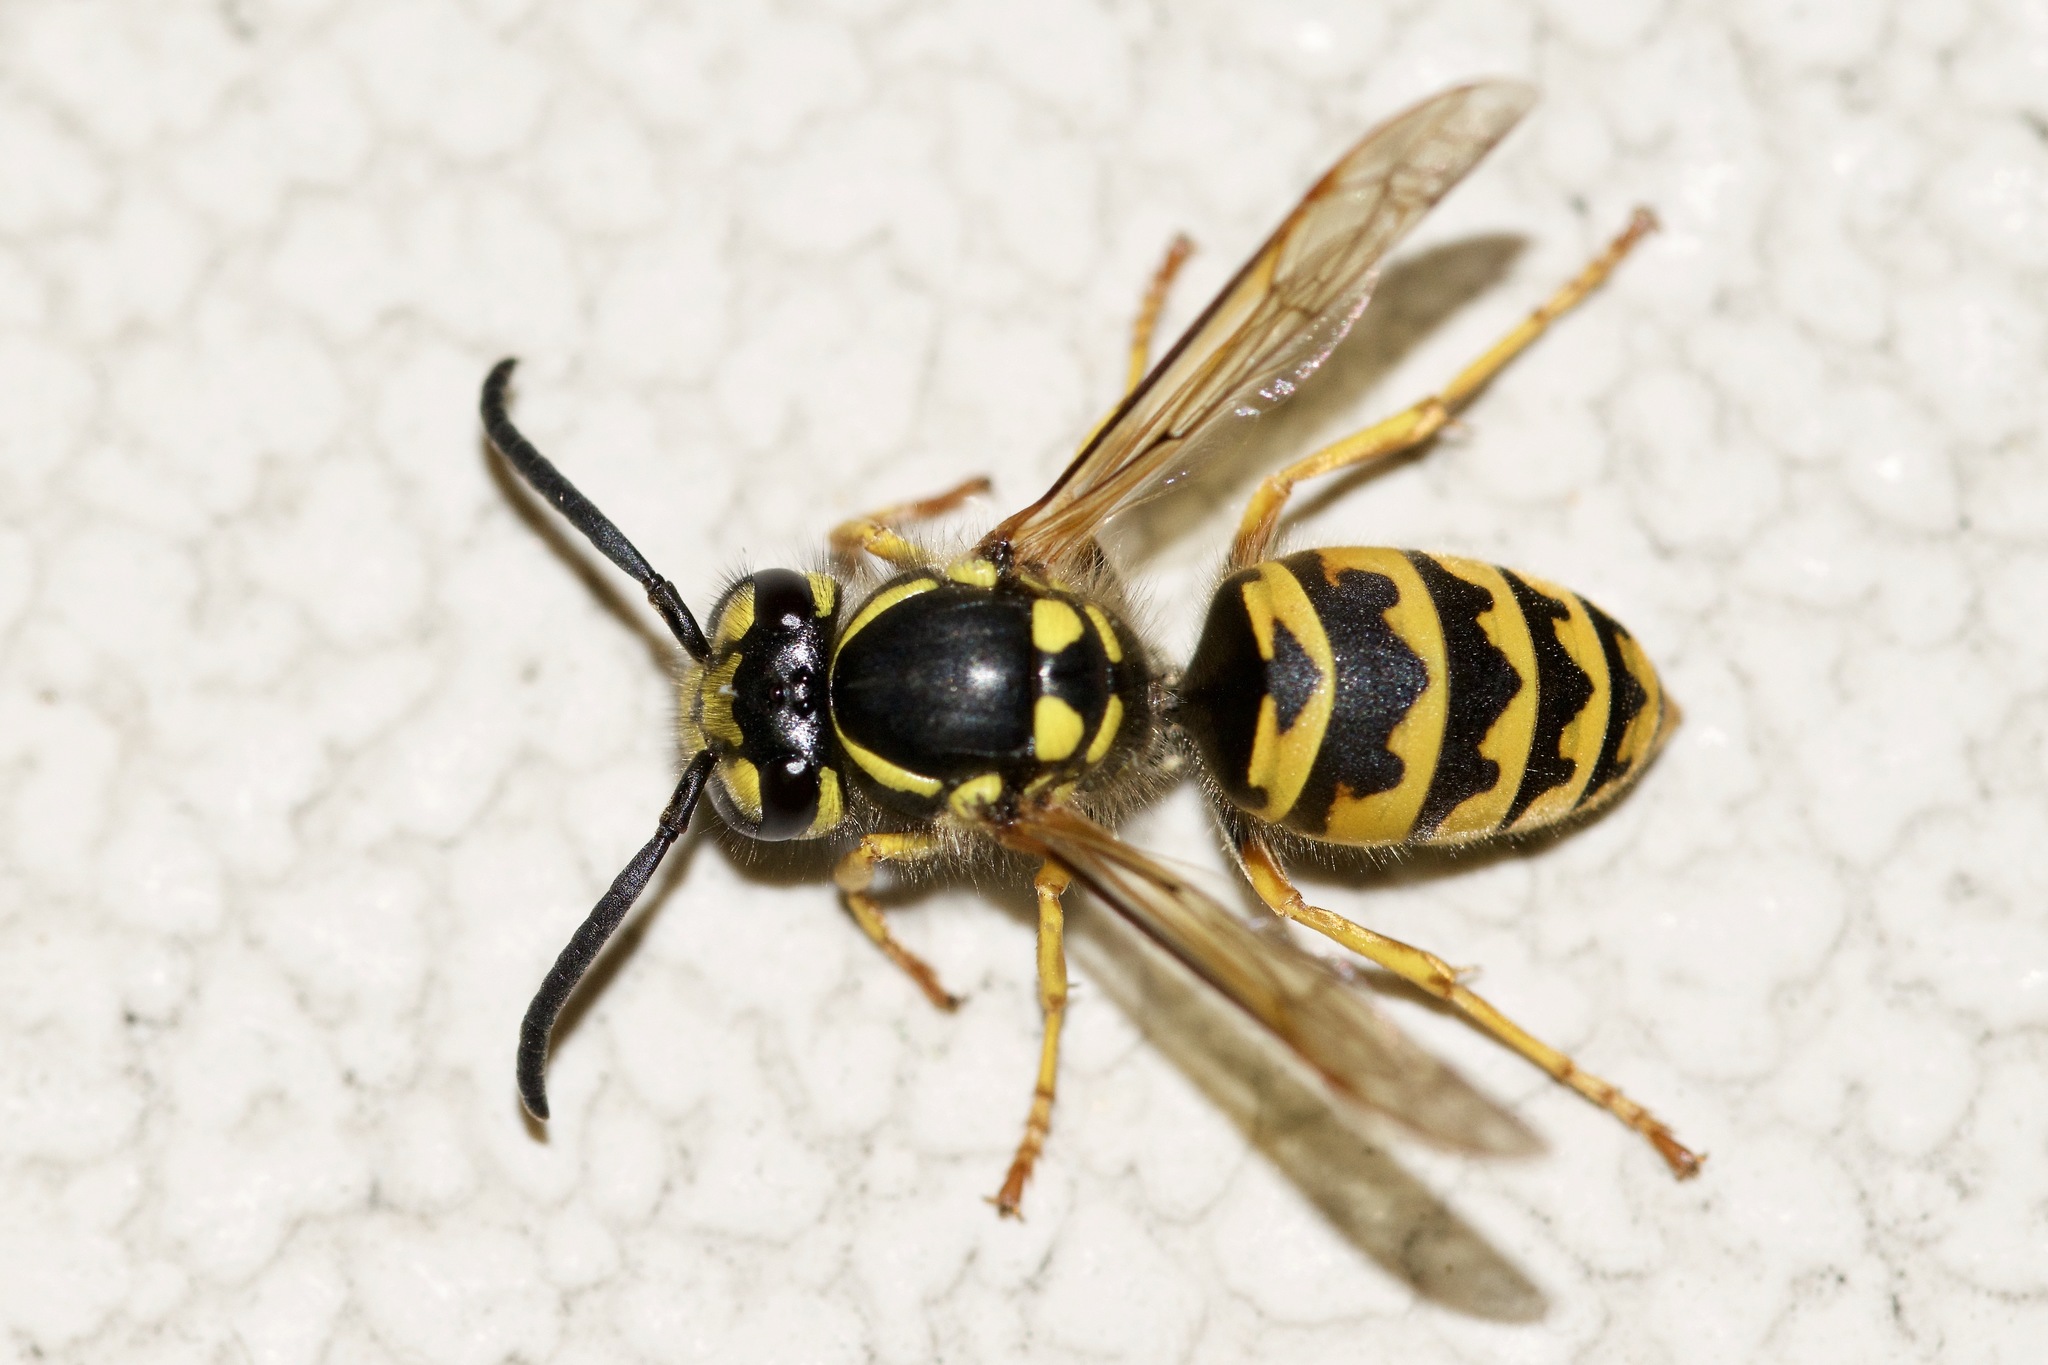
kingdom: Animalia
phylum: Arthropoda
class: Insecta
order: Hymenoptera
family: Vespidae
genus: Vespula
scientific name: Vespula germanica
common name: German wasp
